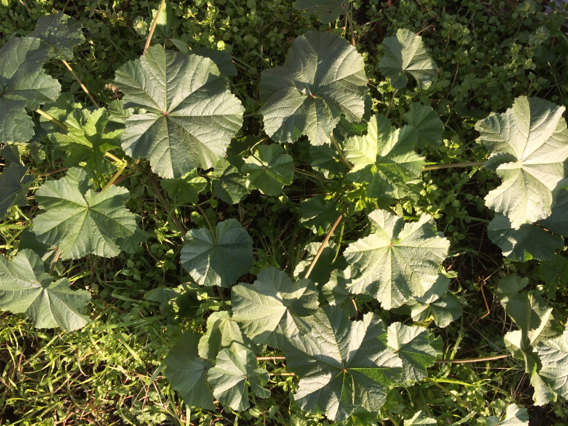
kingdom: Plantae
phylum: Tracheophyta
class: Magnoliopsida
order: Malvales
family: Malvaceae
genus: Malva
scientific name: Malva parviflora
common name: Least mallow
